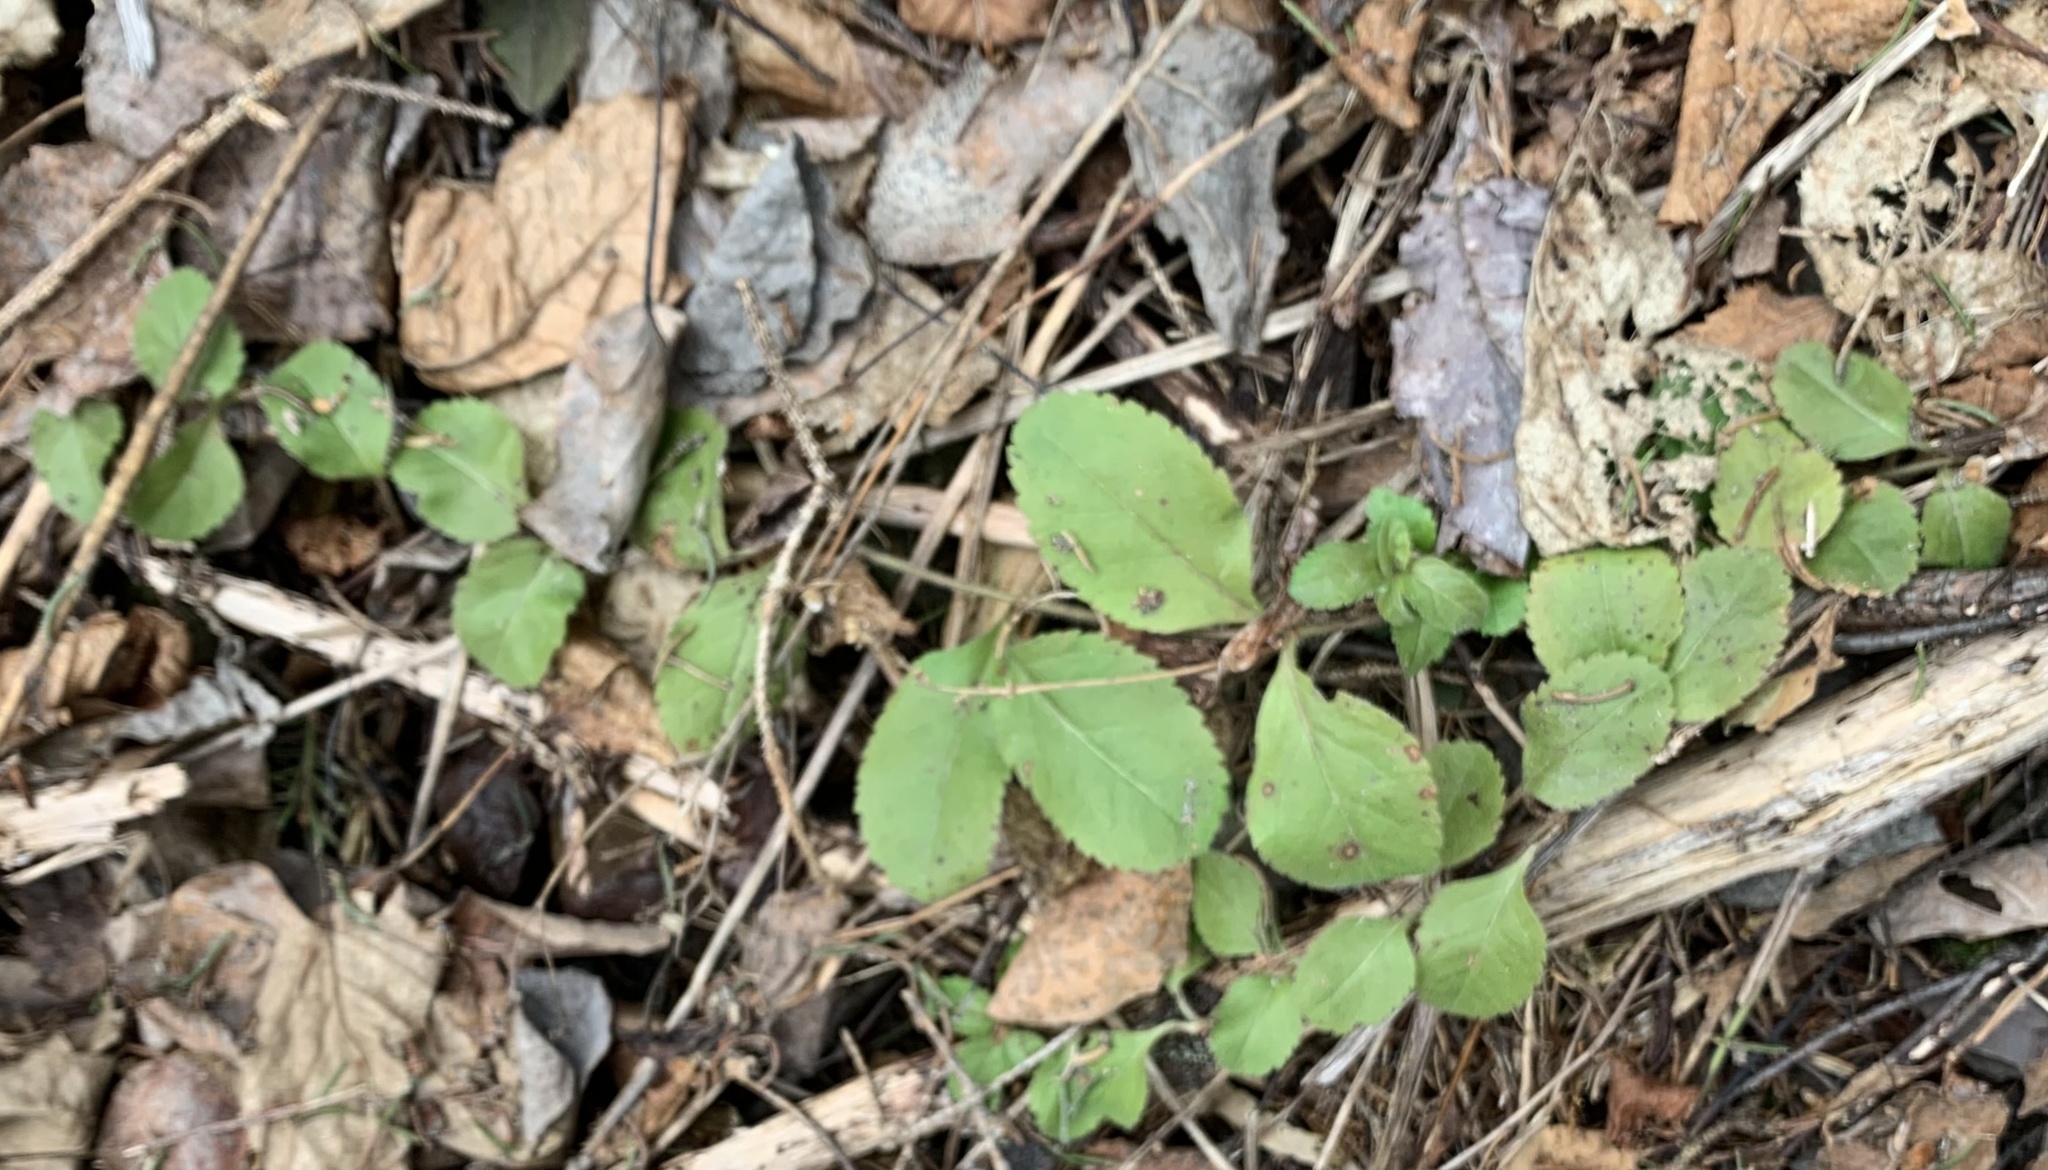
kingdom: Plantae
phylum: Tracheophyta
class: Magnoliopsida
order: Lamiales
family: Plantaginaceae
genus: Veronica
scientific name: Veronica officinalis
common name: Common speedwell
